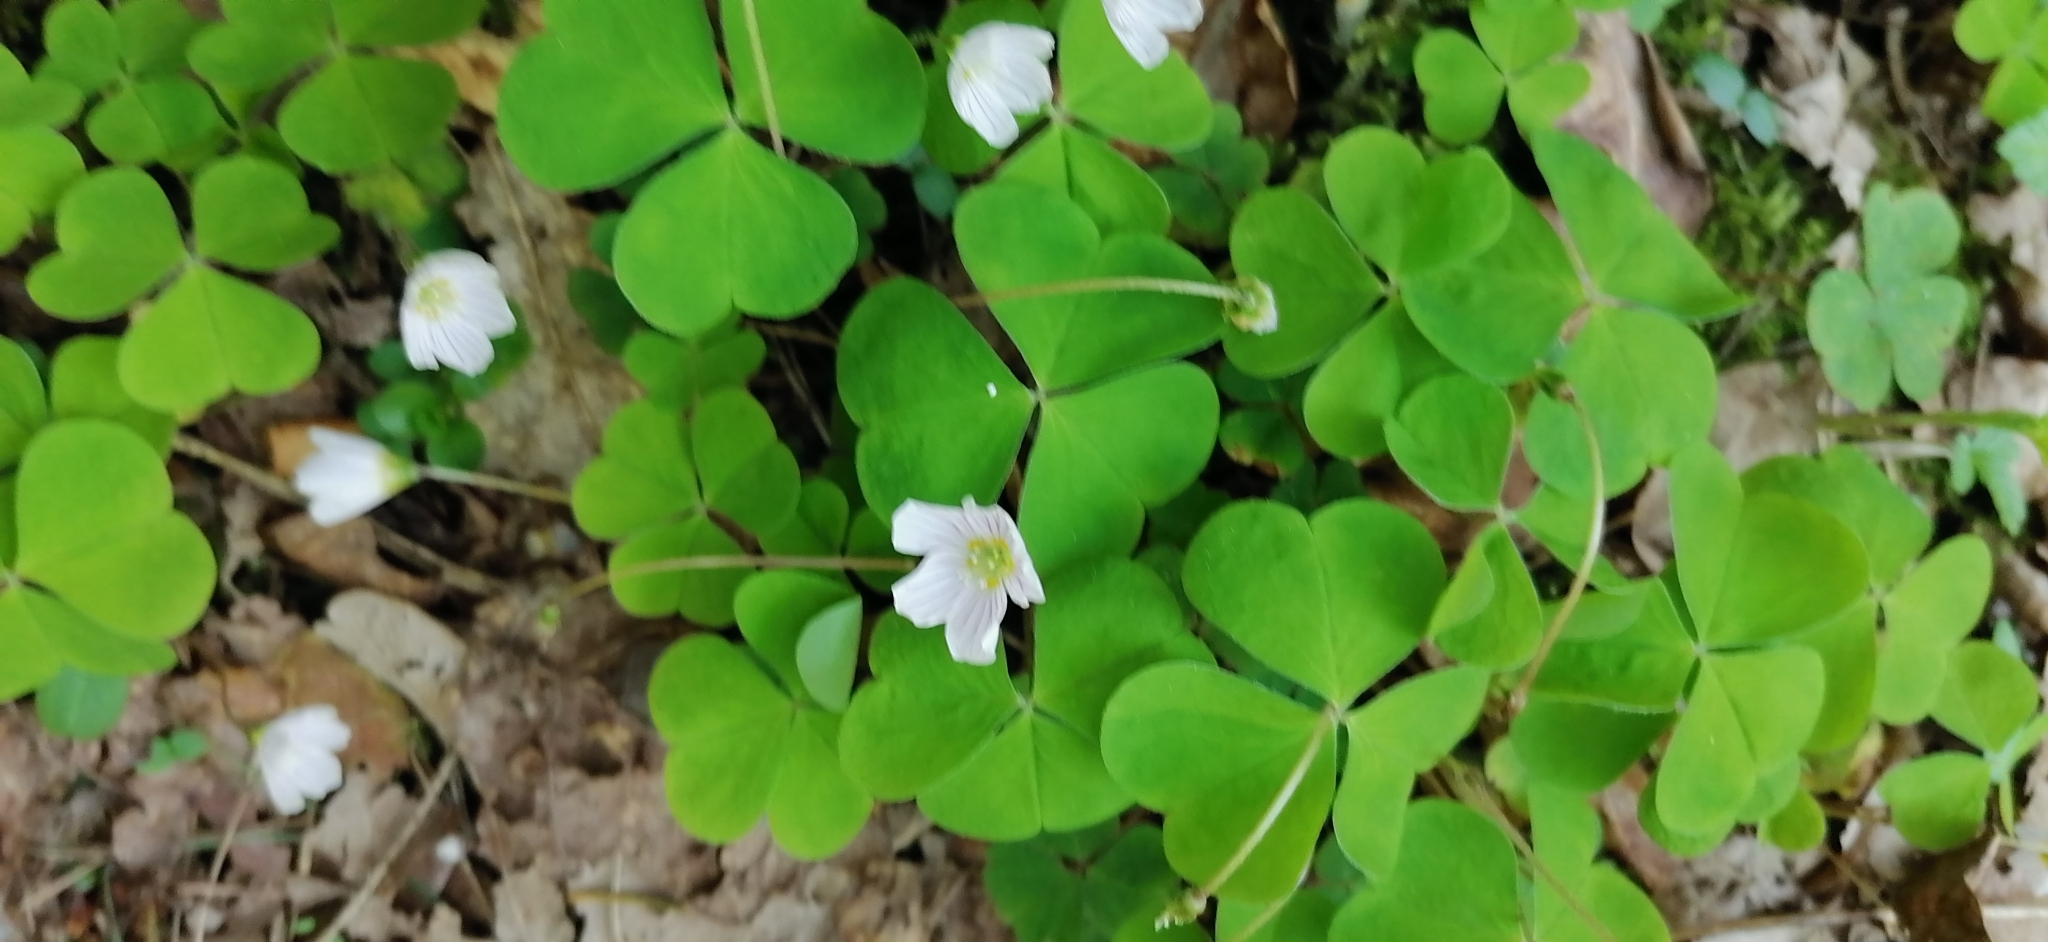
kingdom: Plantae
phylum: Tracheophyta
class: Magnoliopsida
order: Oxalidales
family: Oxalidaceae
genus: Oxalis
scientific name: Oxalis acetosella
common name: Wood-sorrel
